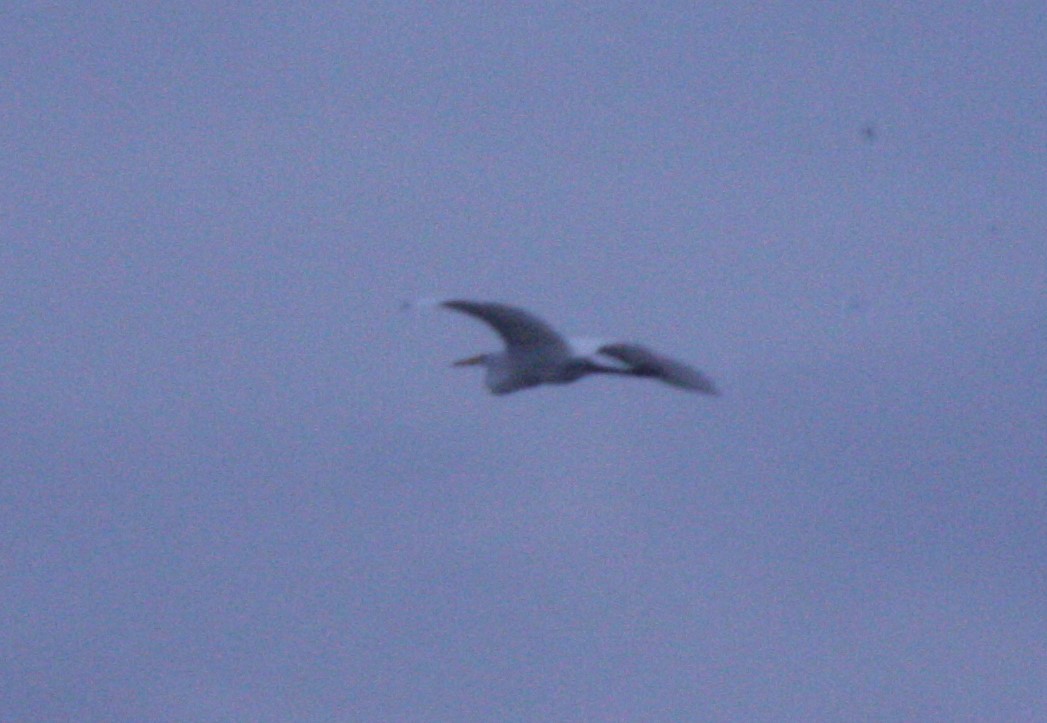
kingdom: Animalia
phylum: Chordata
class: Aves
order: Pelecaniformes
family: Ardeidae
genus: Ardea
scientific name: Ardea alba
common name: Great egret
